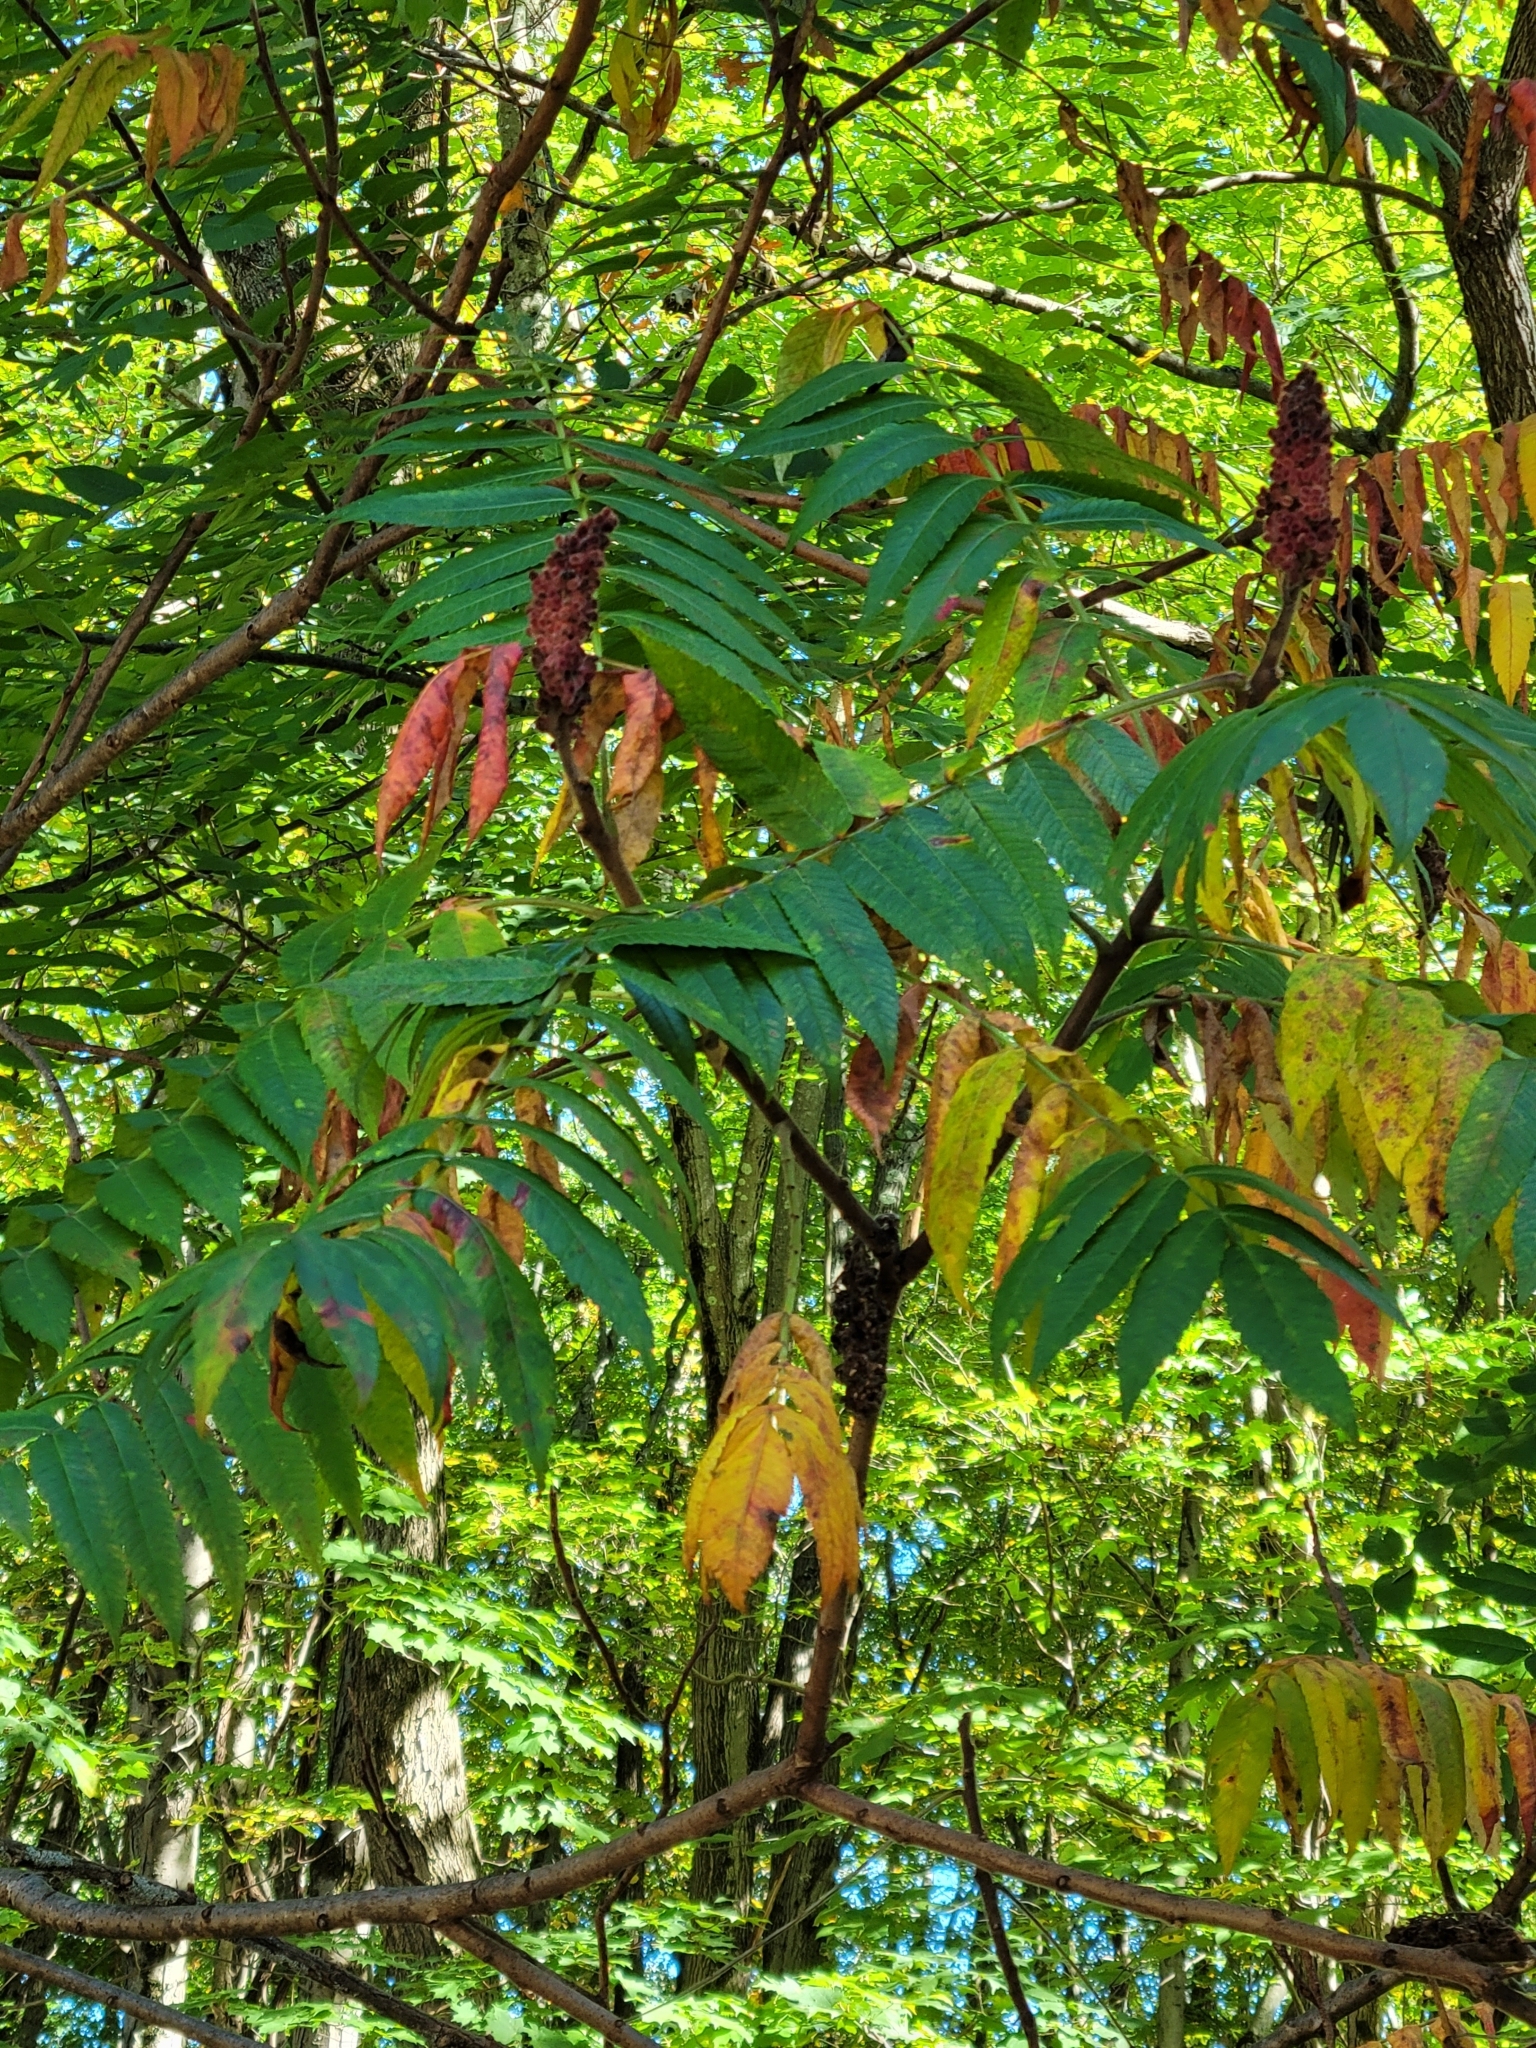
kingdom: Plantae
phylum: Tracheophyta
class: Magnoliopsida
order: Sapindales
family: Anacardiaceae
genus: Rhus
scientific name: Rhus typhina
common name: Staghorn sumac
